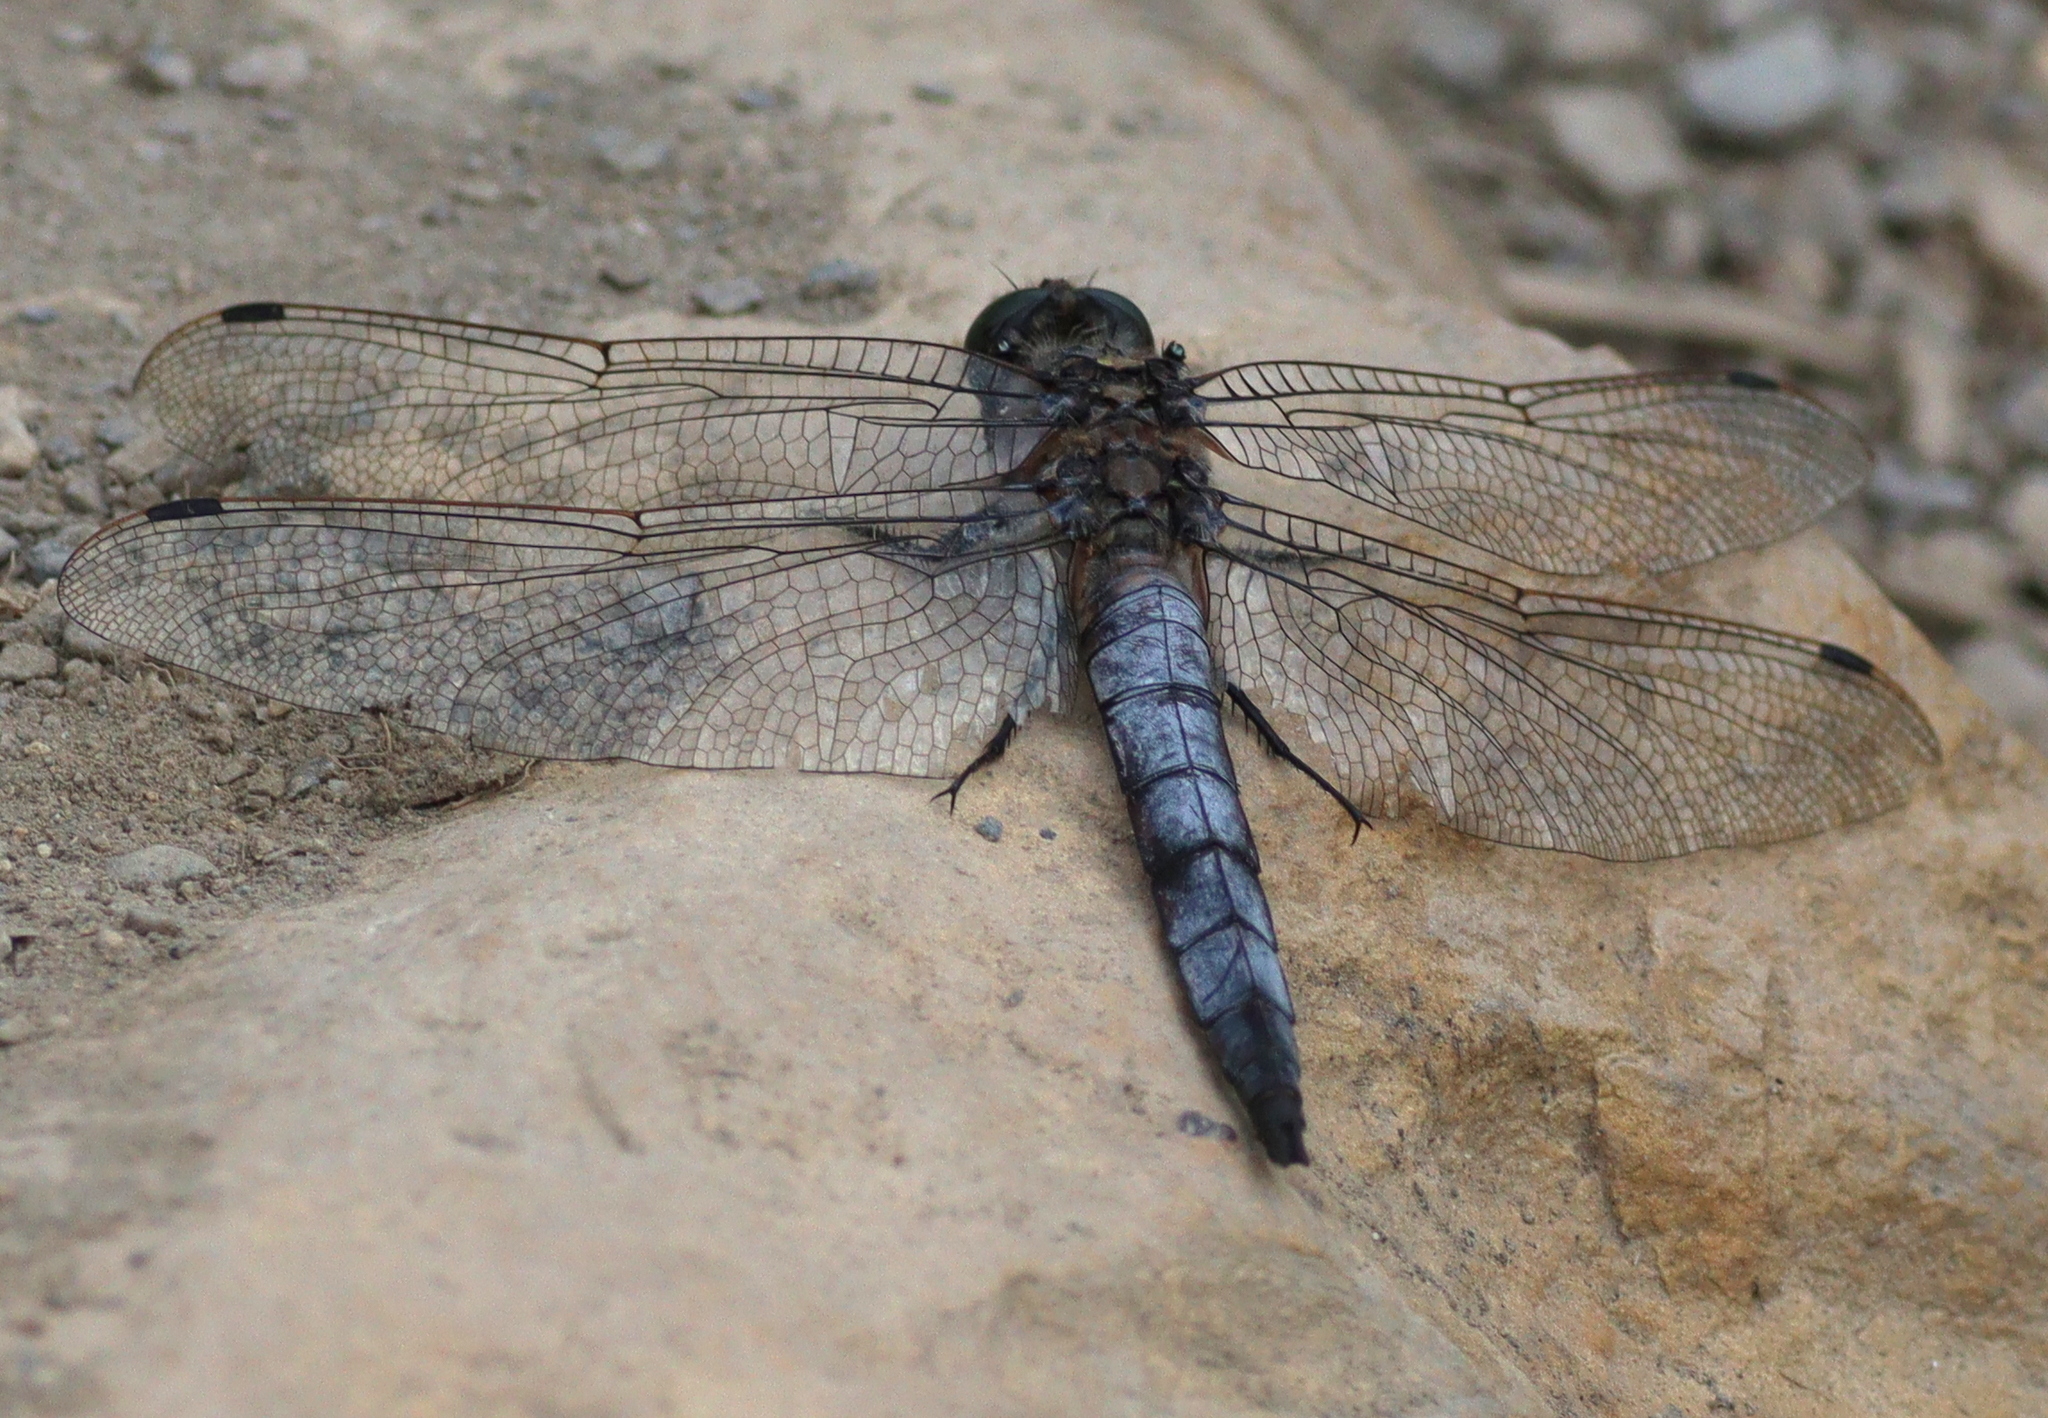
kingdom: Animalia
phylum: Arthropoda
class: Insecta
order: Odonata
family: Libellulidae
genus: Orthetrum
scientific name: Orthetrum cancellatum
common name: Black-tailed skimmer
